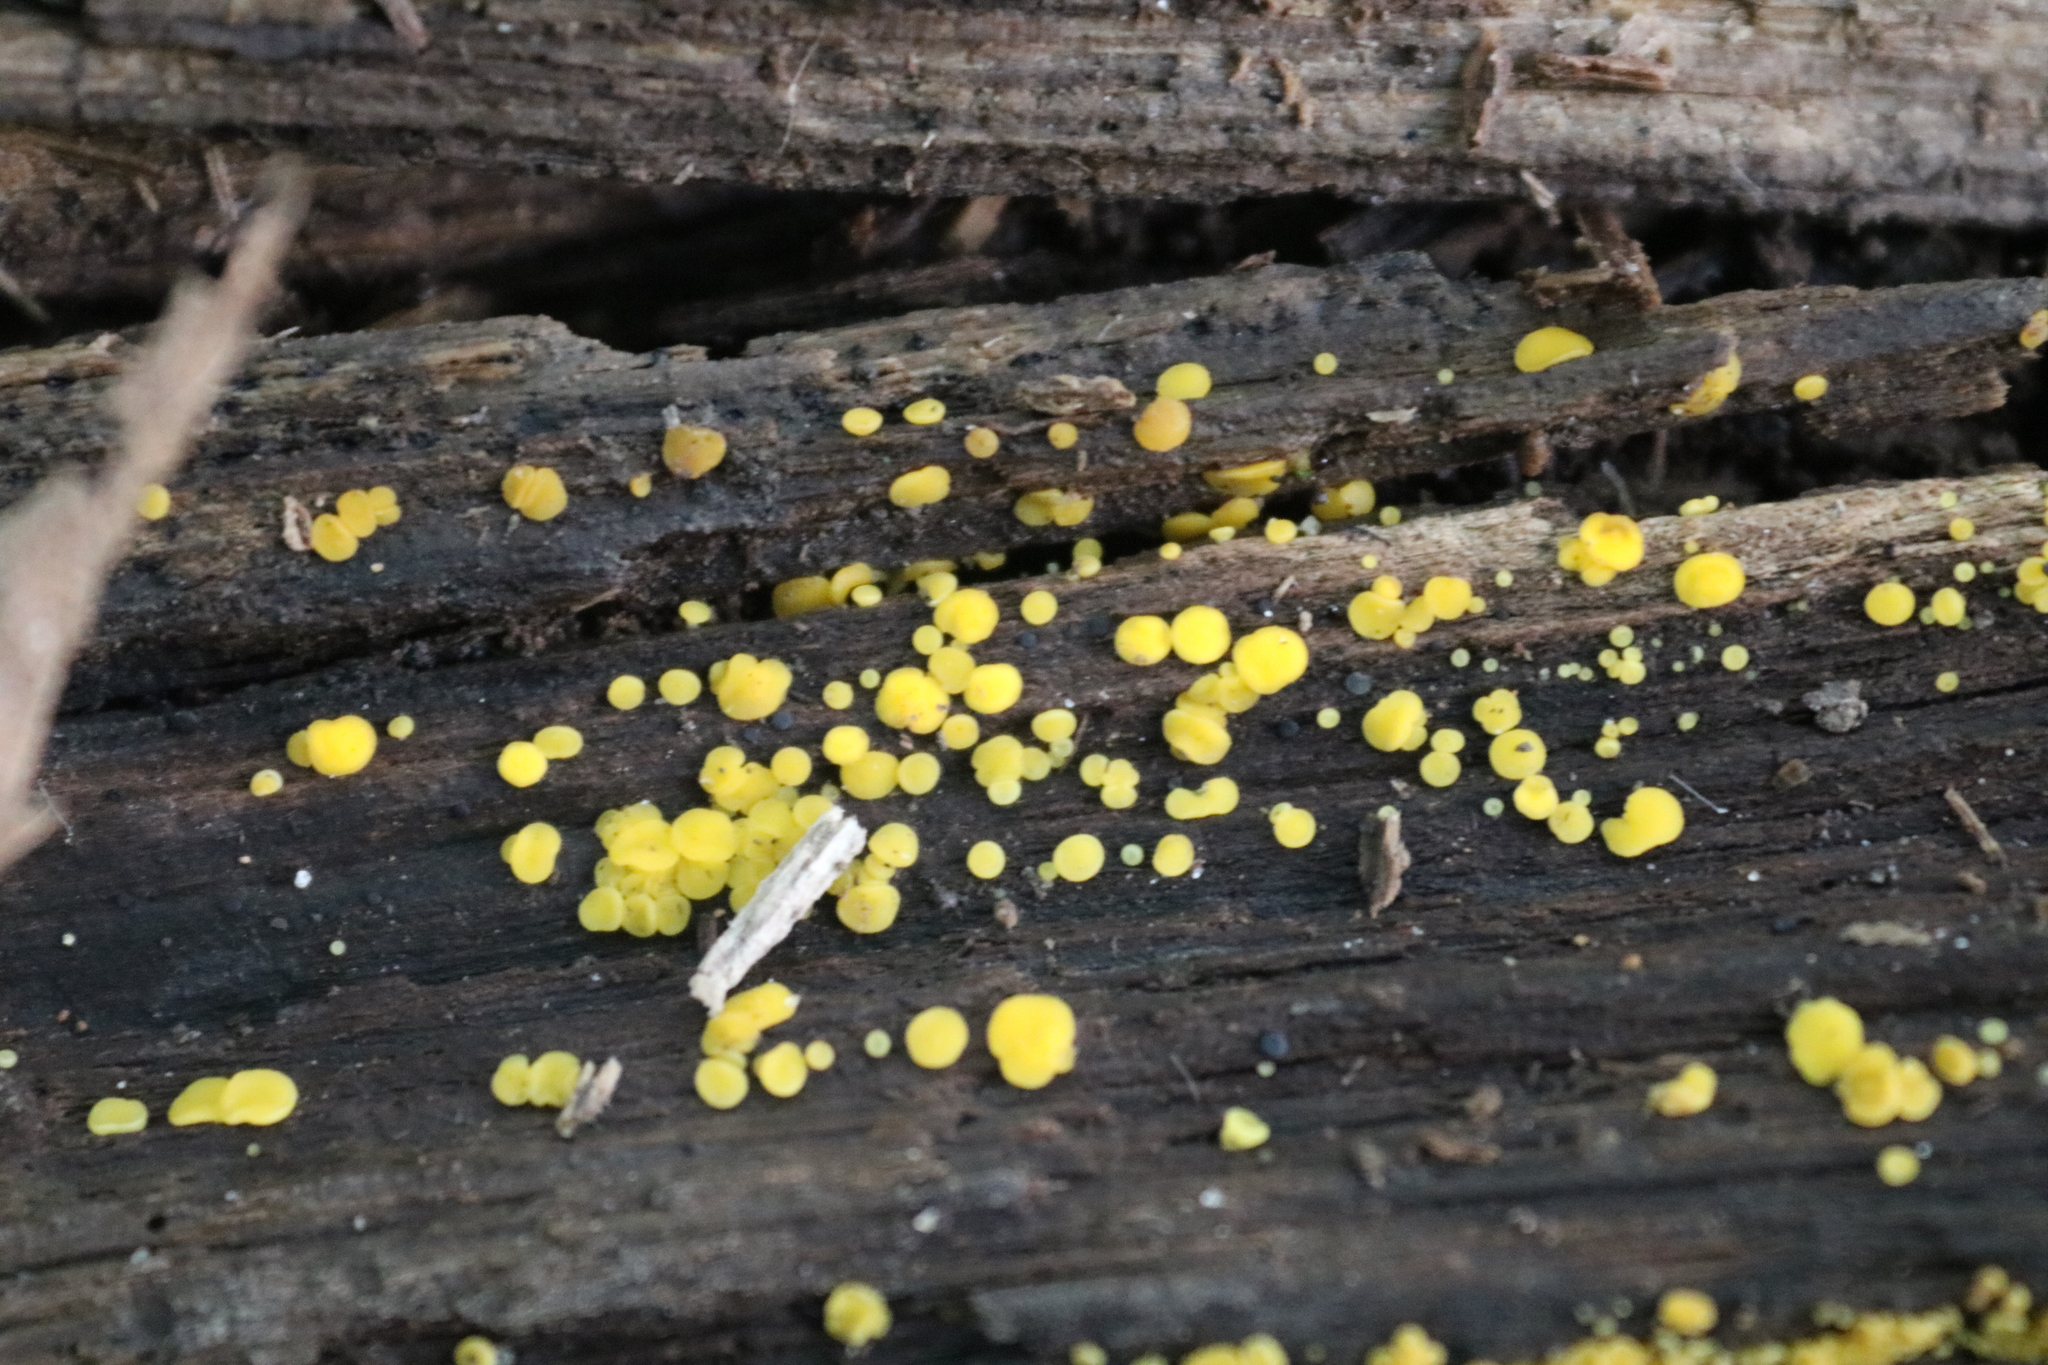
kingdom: Fungi
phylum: Ascomycota
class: Leotiomycetes
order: Helotiales
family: Pezizellaceae
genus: Calycina
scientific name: Calycina citrina
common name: Yellow fairy cups
